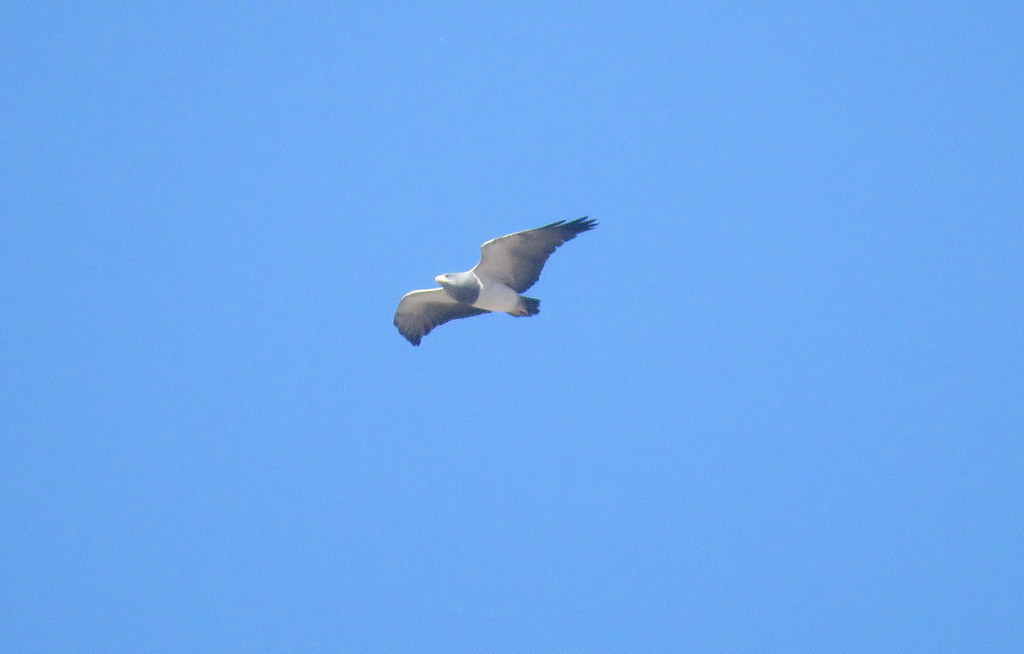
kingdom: Animalia
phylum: Chordata
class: Aves
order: Accipitriformes
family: Accipitridae
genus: Geranoaetus
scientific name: Geranoaetus melanoleucus
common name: Black-chested buzzard-eagle
